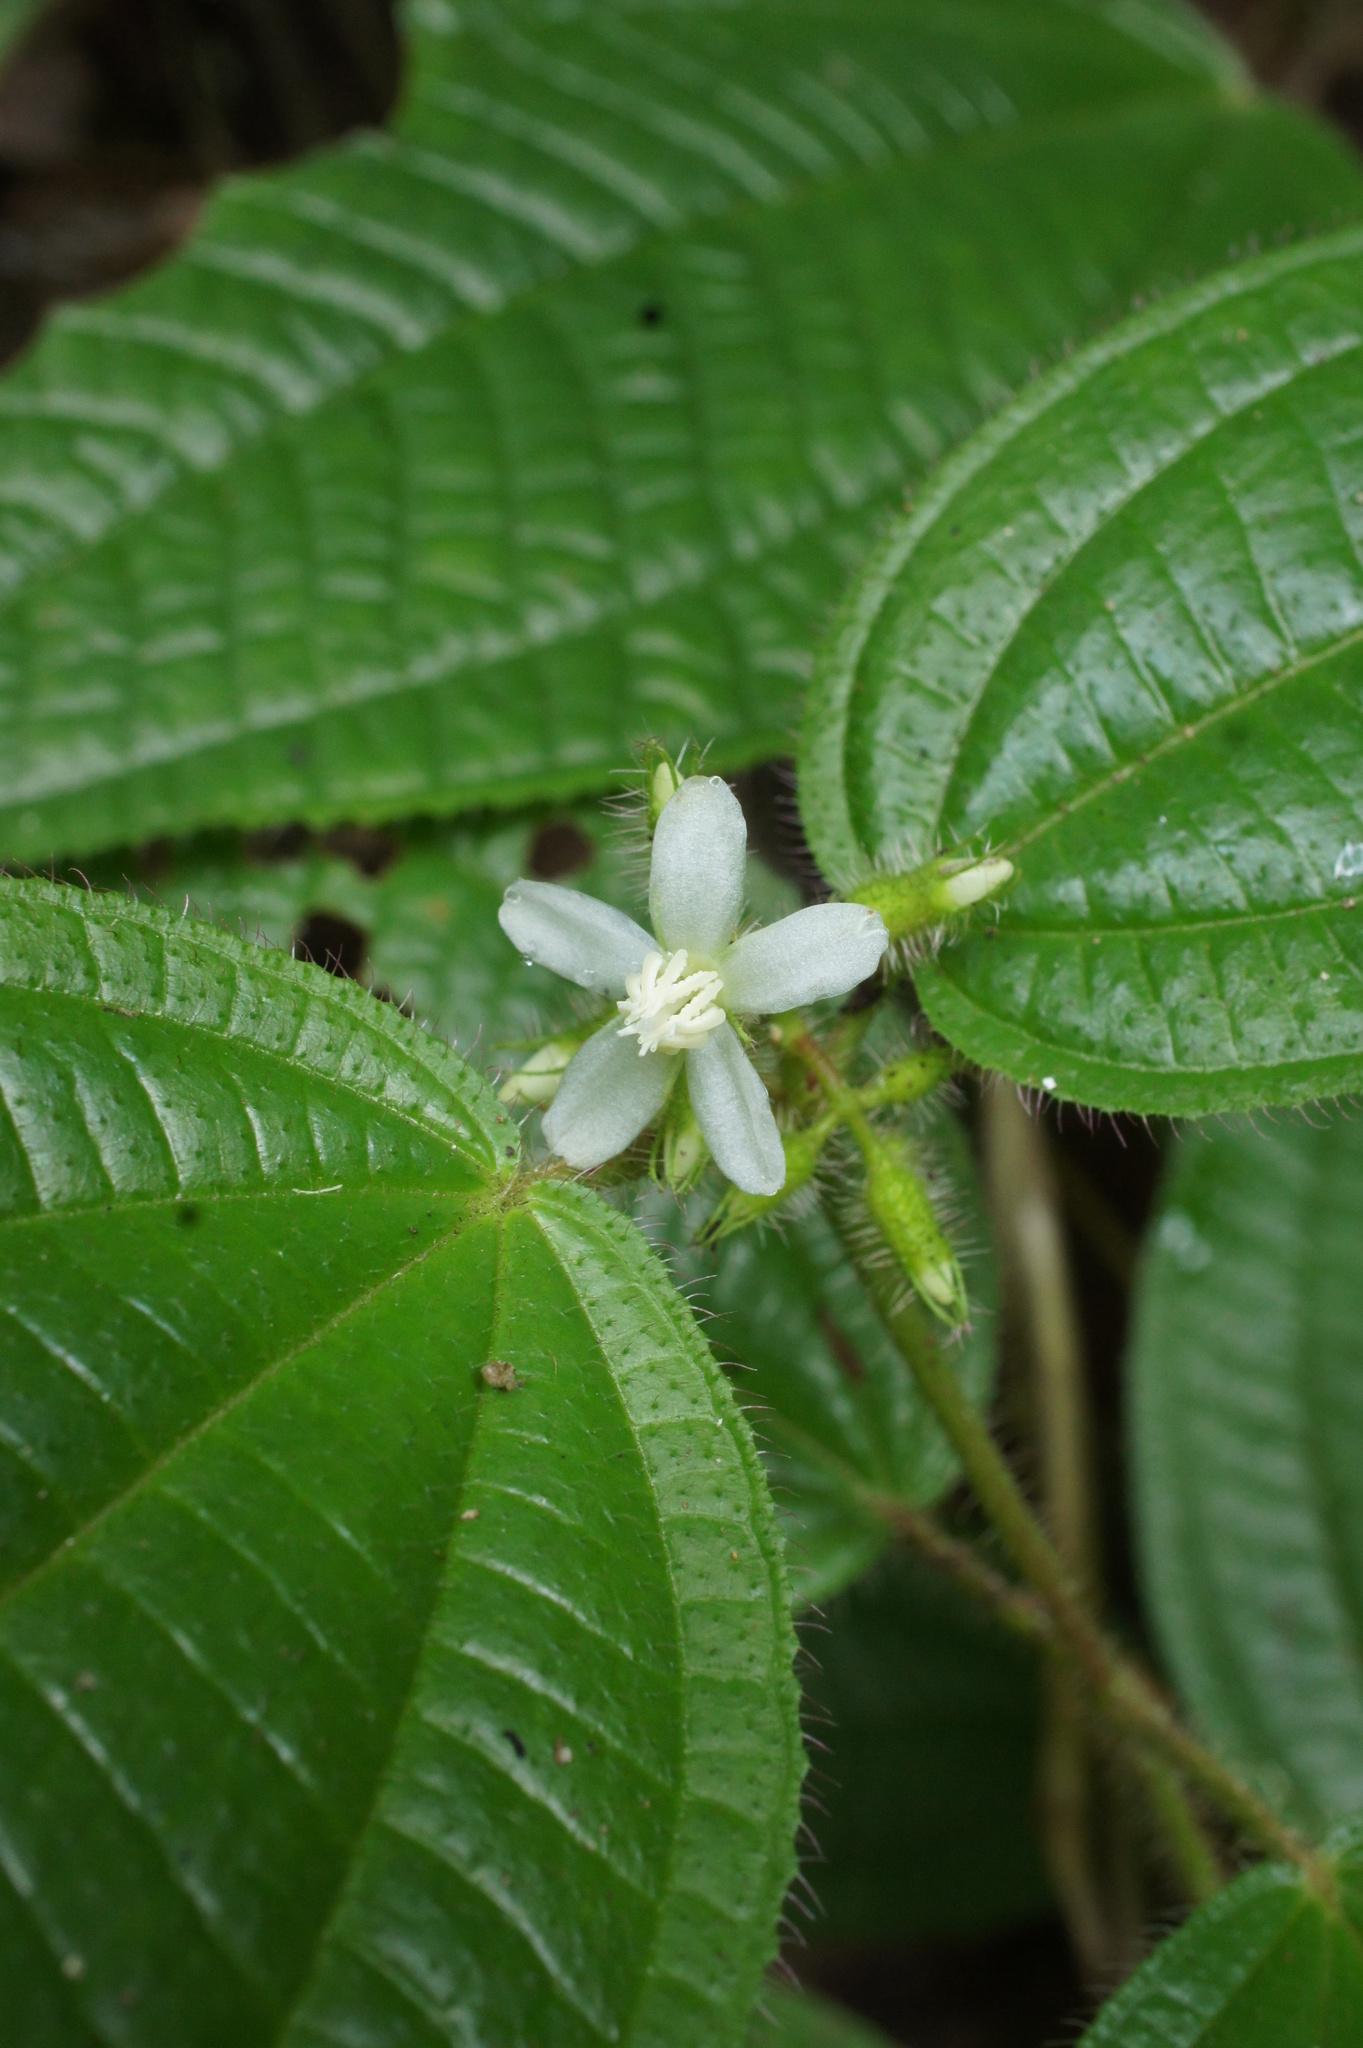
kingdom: Plantae
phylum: Tracheophyta
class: Magnoliopsida
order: Myrtales
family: Melastomataceae
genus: Miconia
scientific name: Miconia crenata
